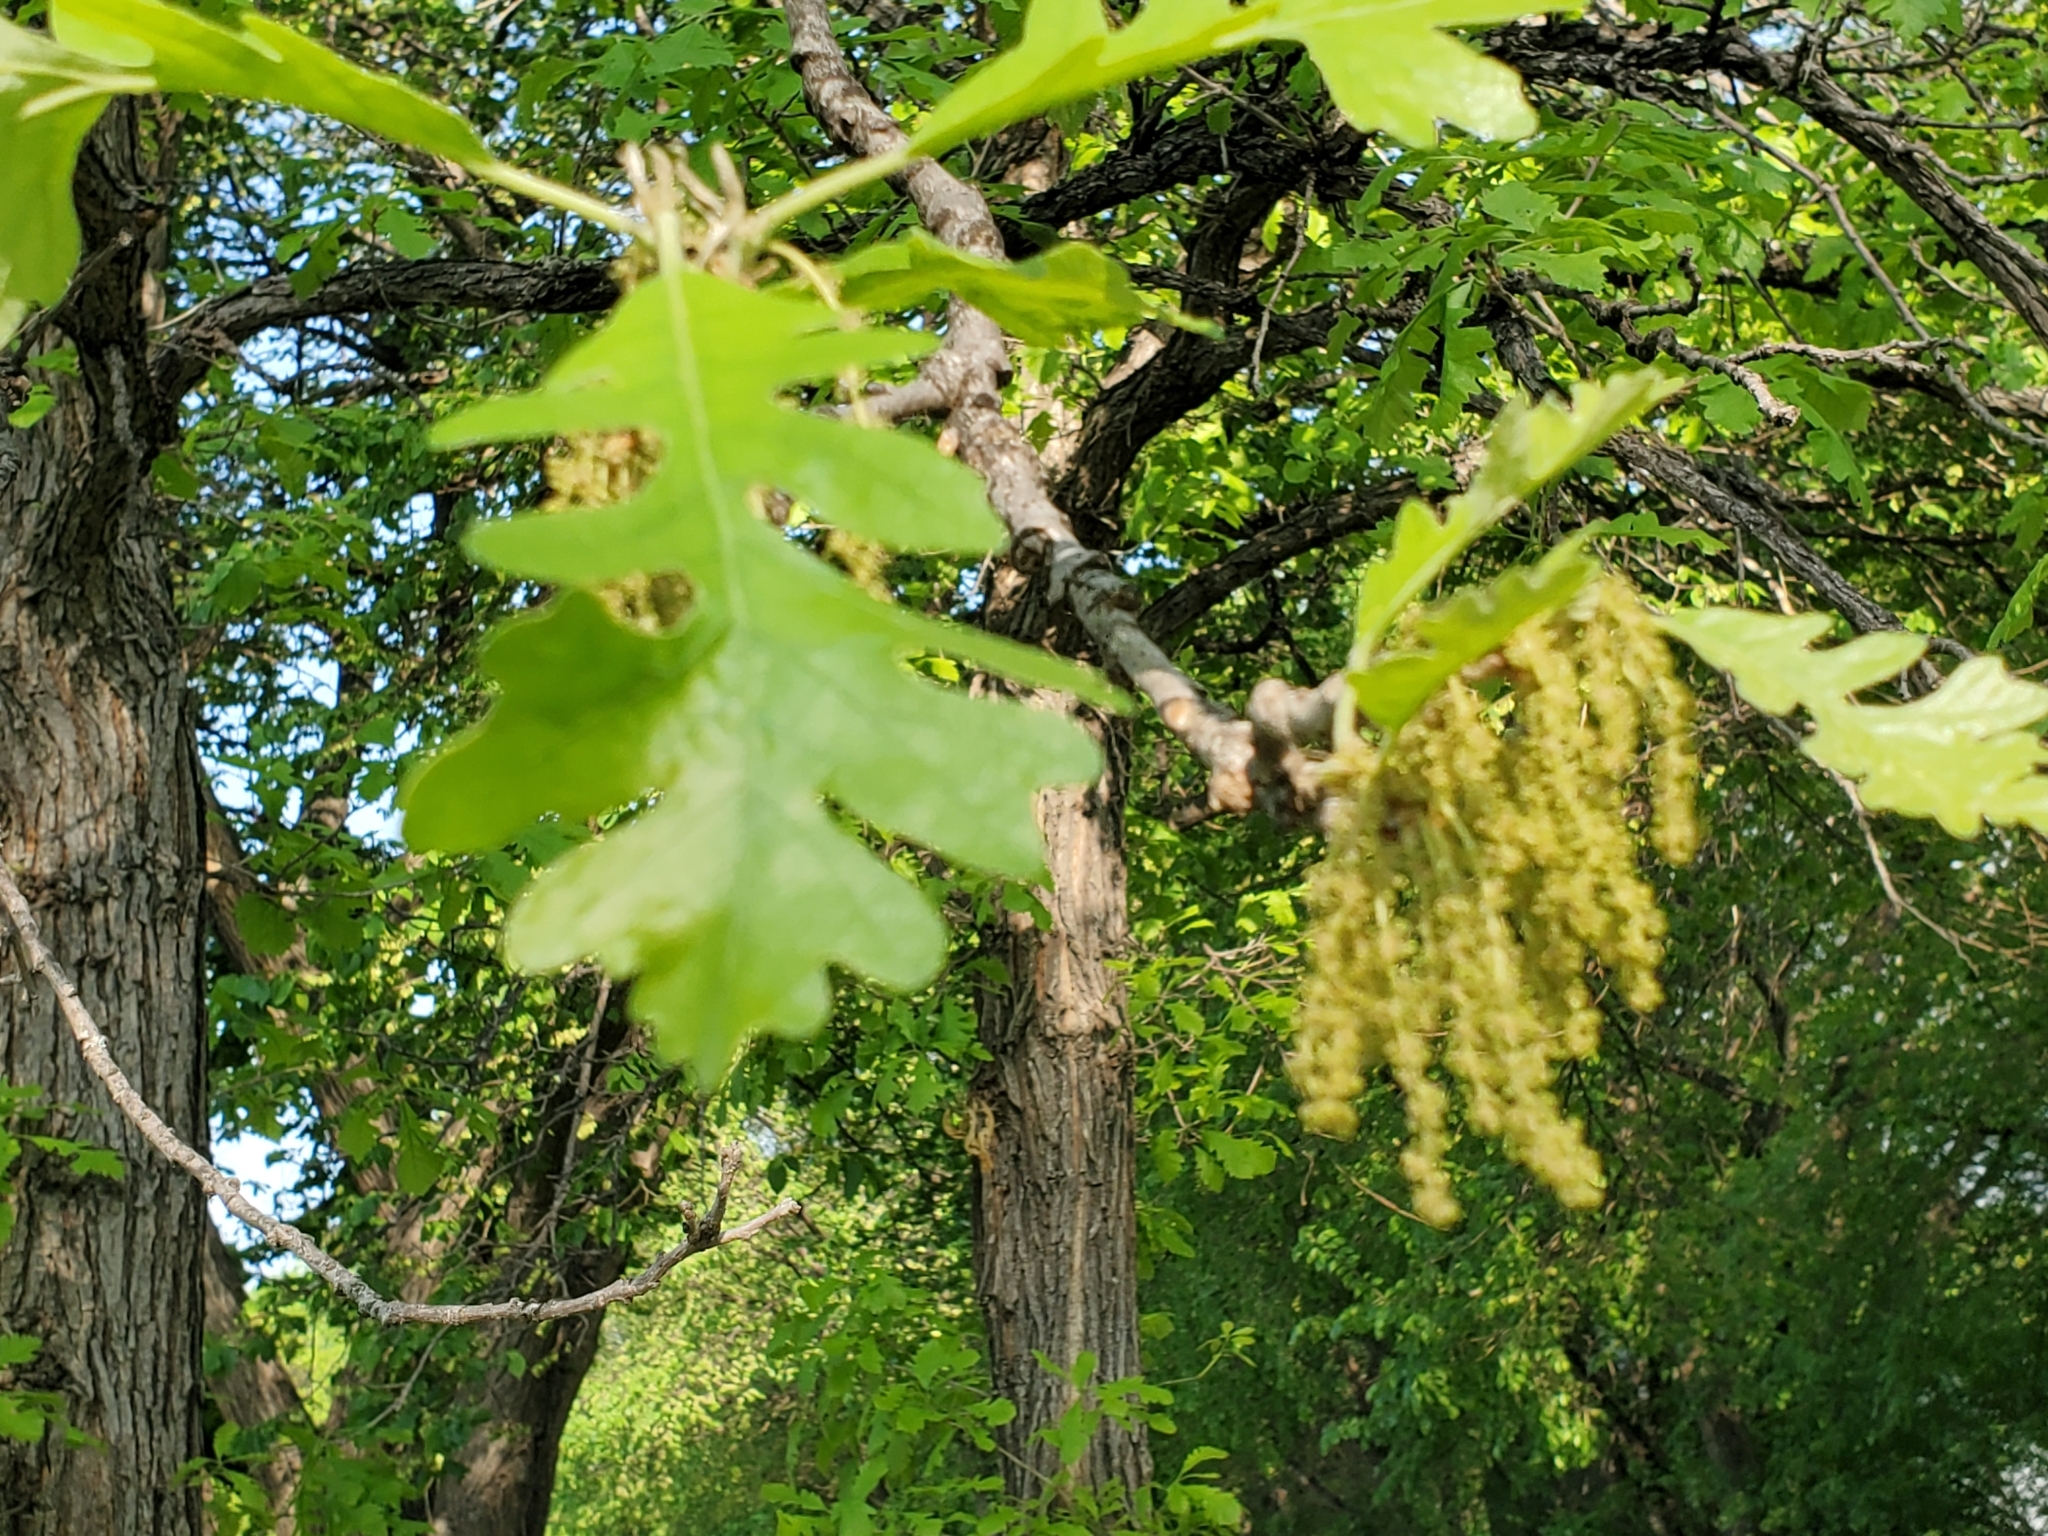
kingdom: Plantae
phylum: Tracheophyta
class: Magnoliopsida
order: Fagales
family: Fagaceae
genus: Quercus
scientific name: Quercus macrocarpa
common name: Bur oak
